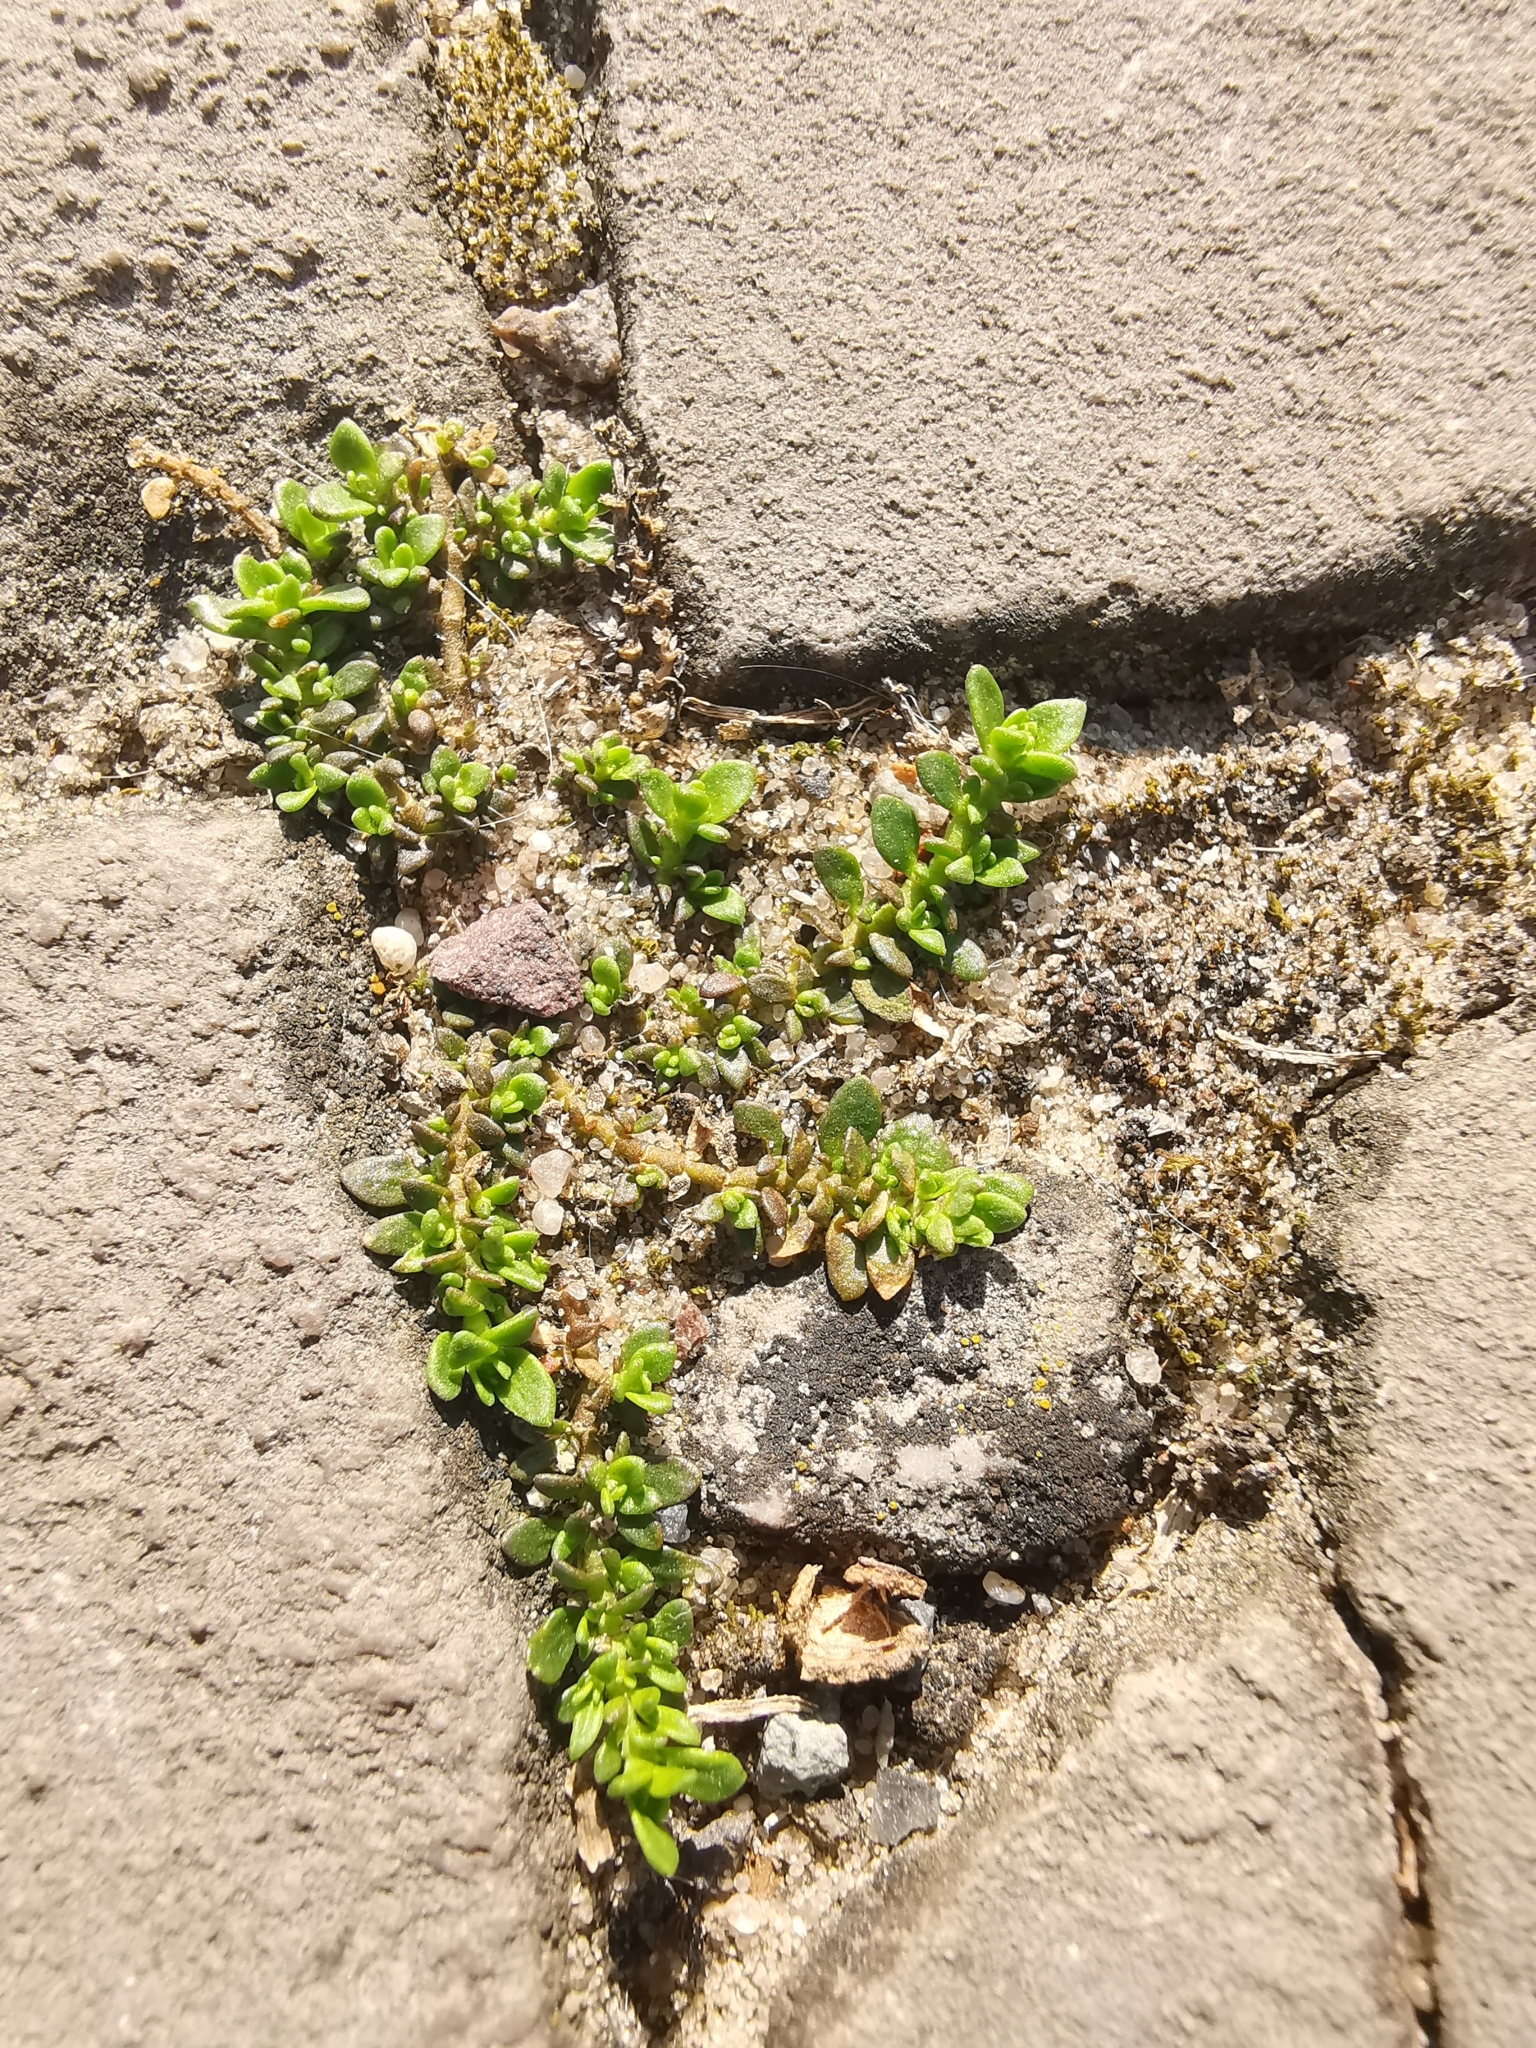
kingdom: Plantae
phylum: Tracheophyta
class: Magnoliopsida
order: Caryophyllales
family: Caryophyllaceae
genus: Herniaria
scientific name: Herniaria glabra
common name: Smooth rupturewort
